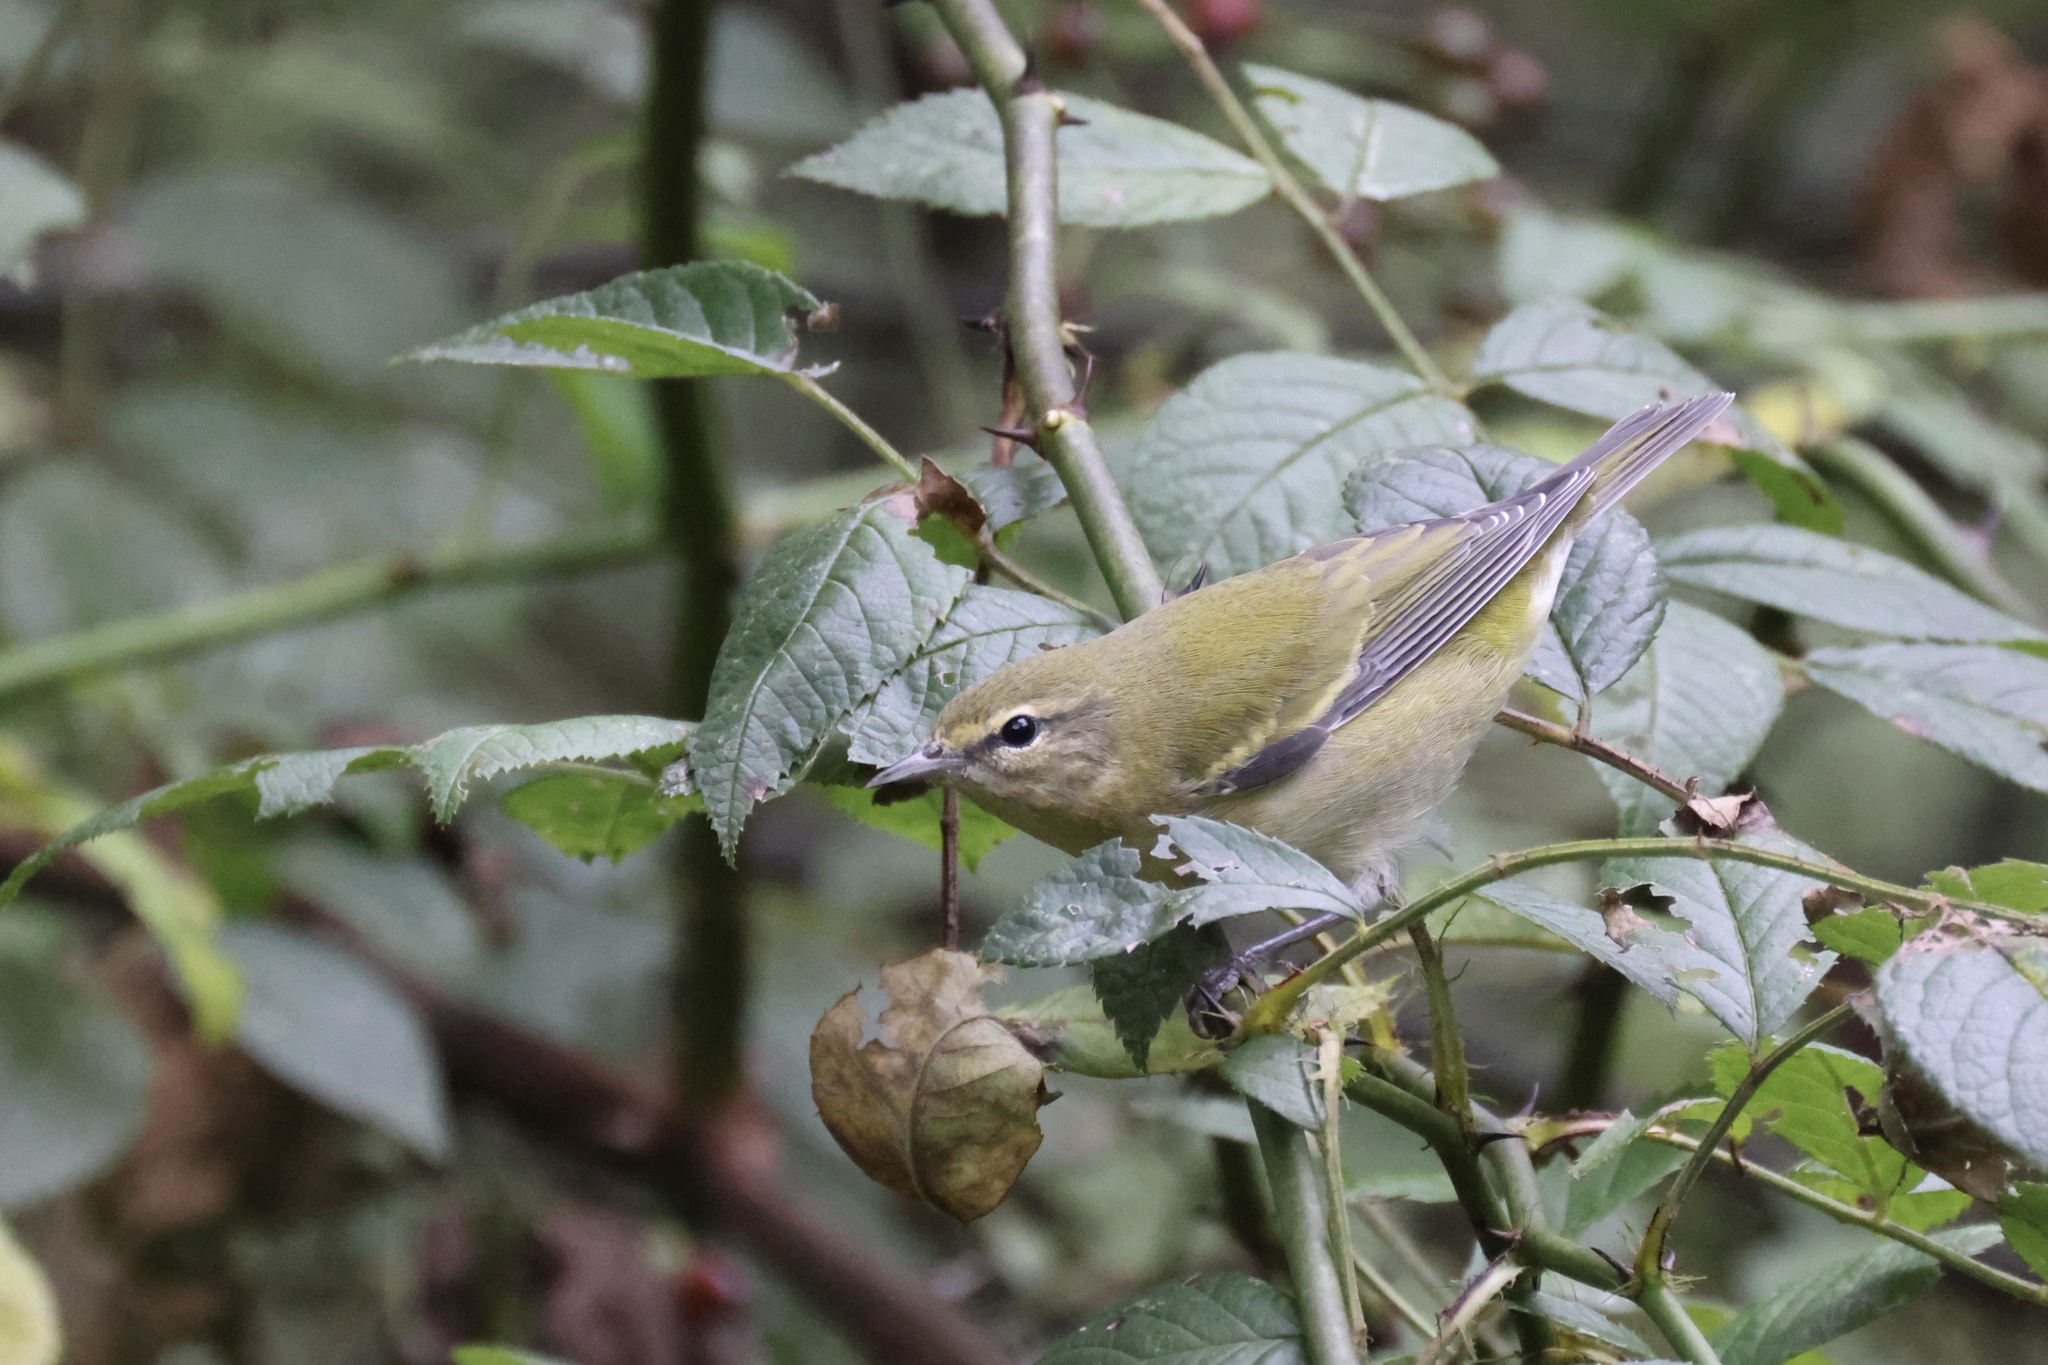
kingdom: Animalia
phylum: Chordata
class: Aves
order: Passeriformes
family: Parulidae
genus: Leiothlypis
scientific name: Leiothlypis peregrina
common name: Tennessee warbler
